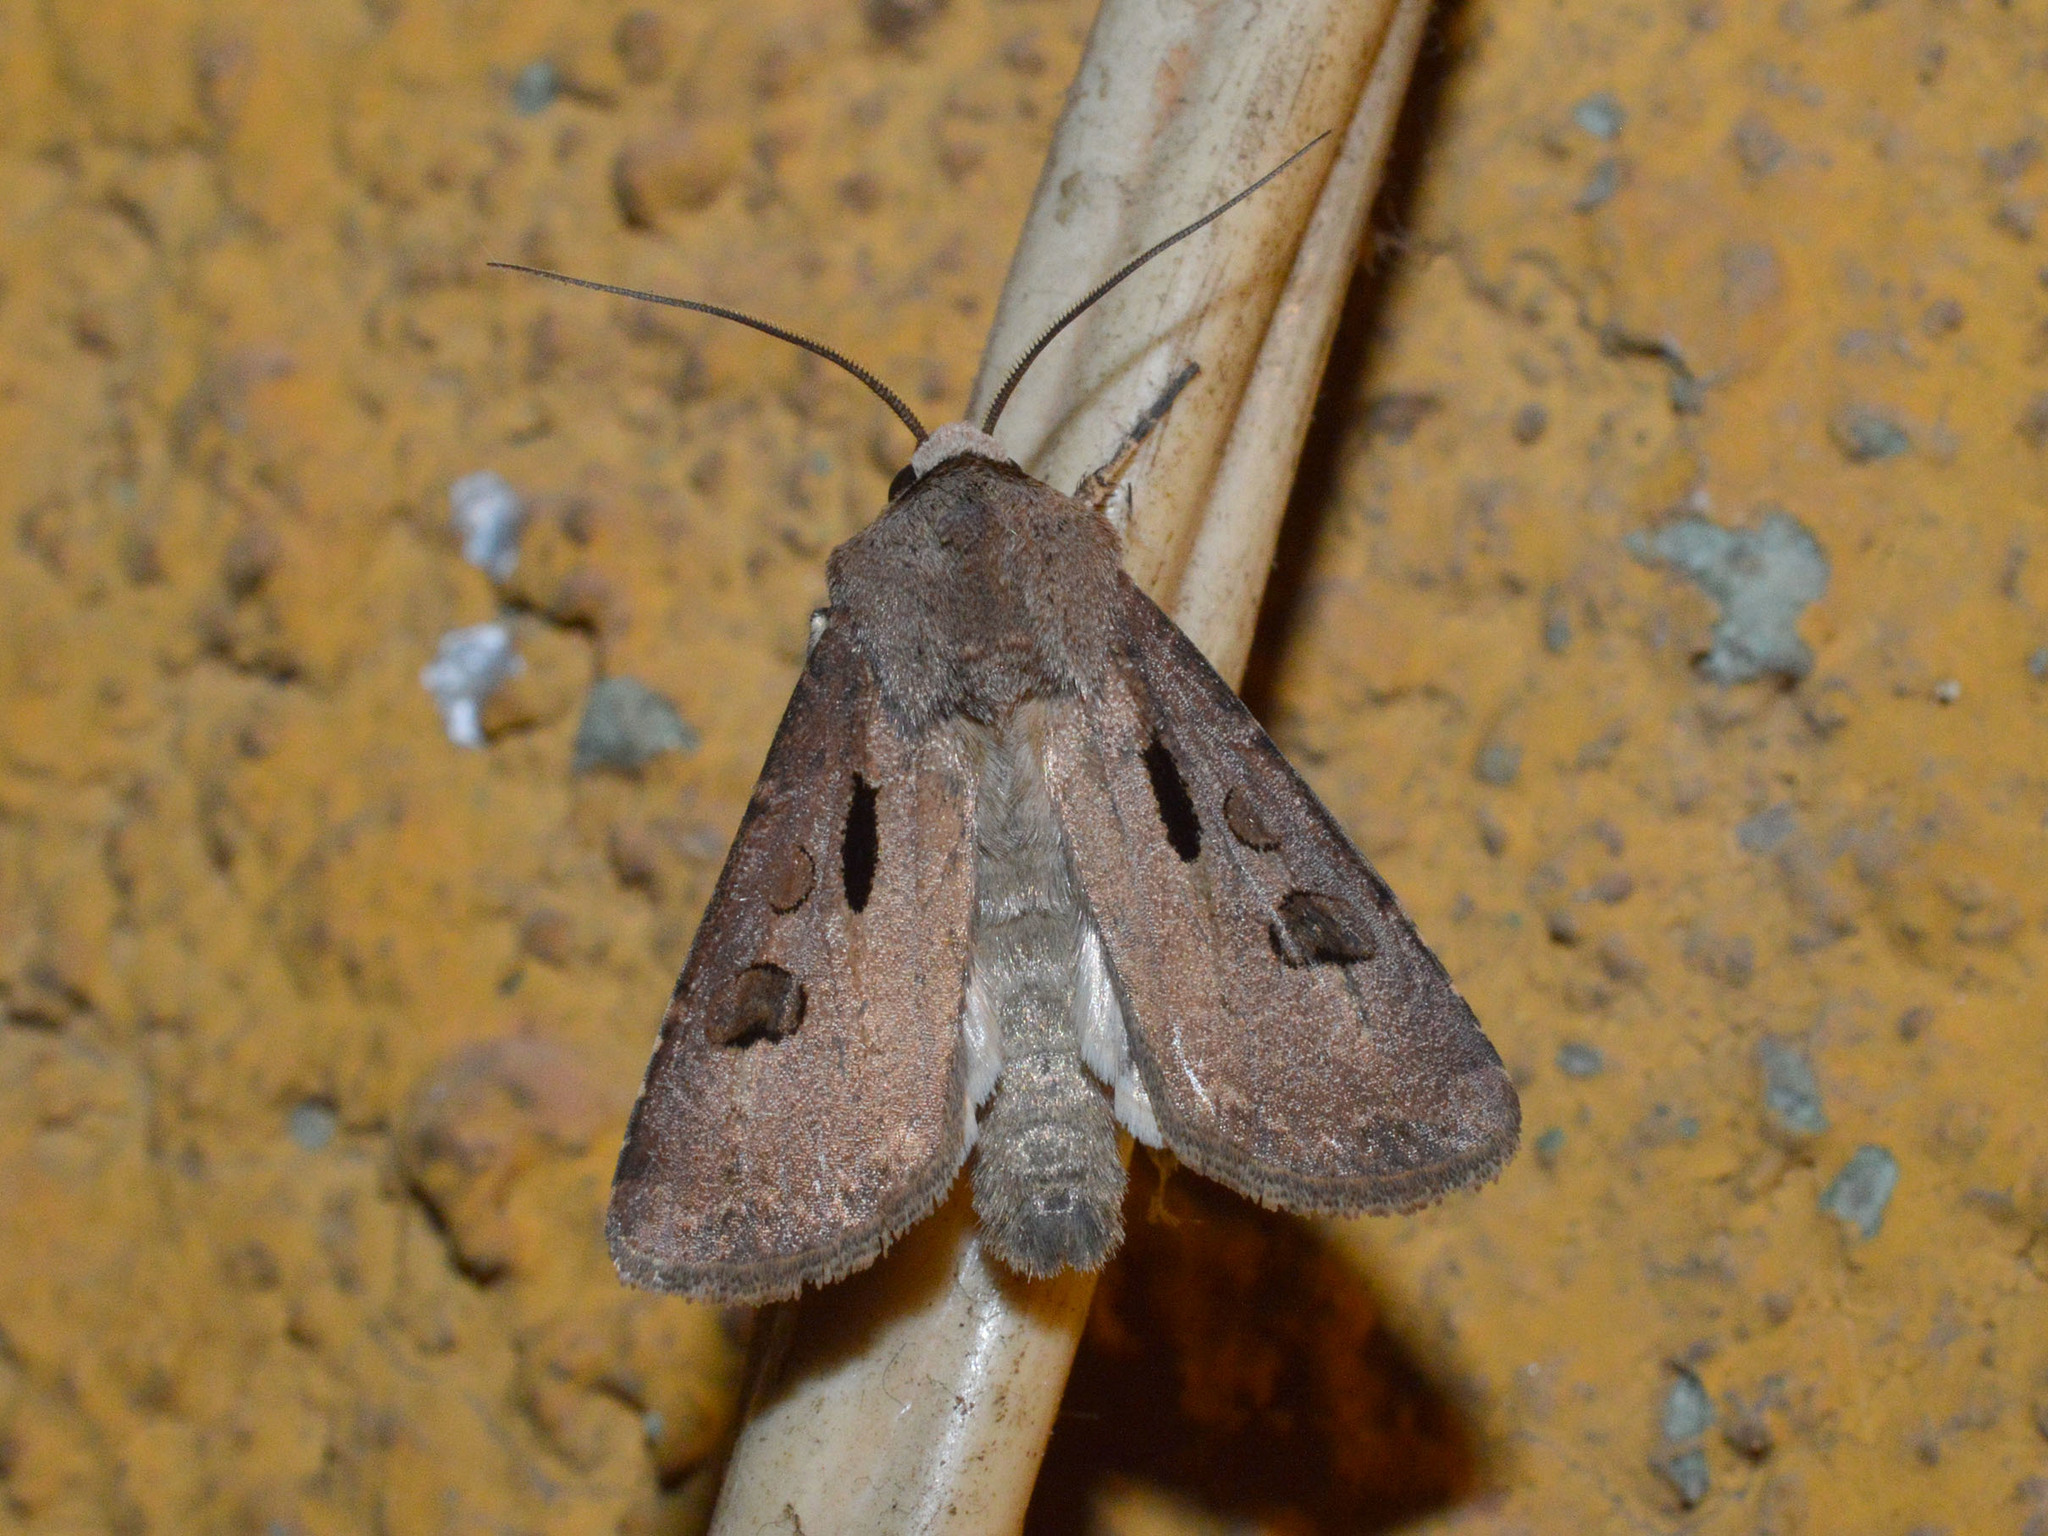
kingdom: Animalia
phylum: Arthropoda
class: Insecta
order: Lepidoptera
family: Noctuidae
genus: Agrotis
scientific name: Agrotis exclamationis
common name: Heart and dart
